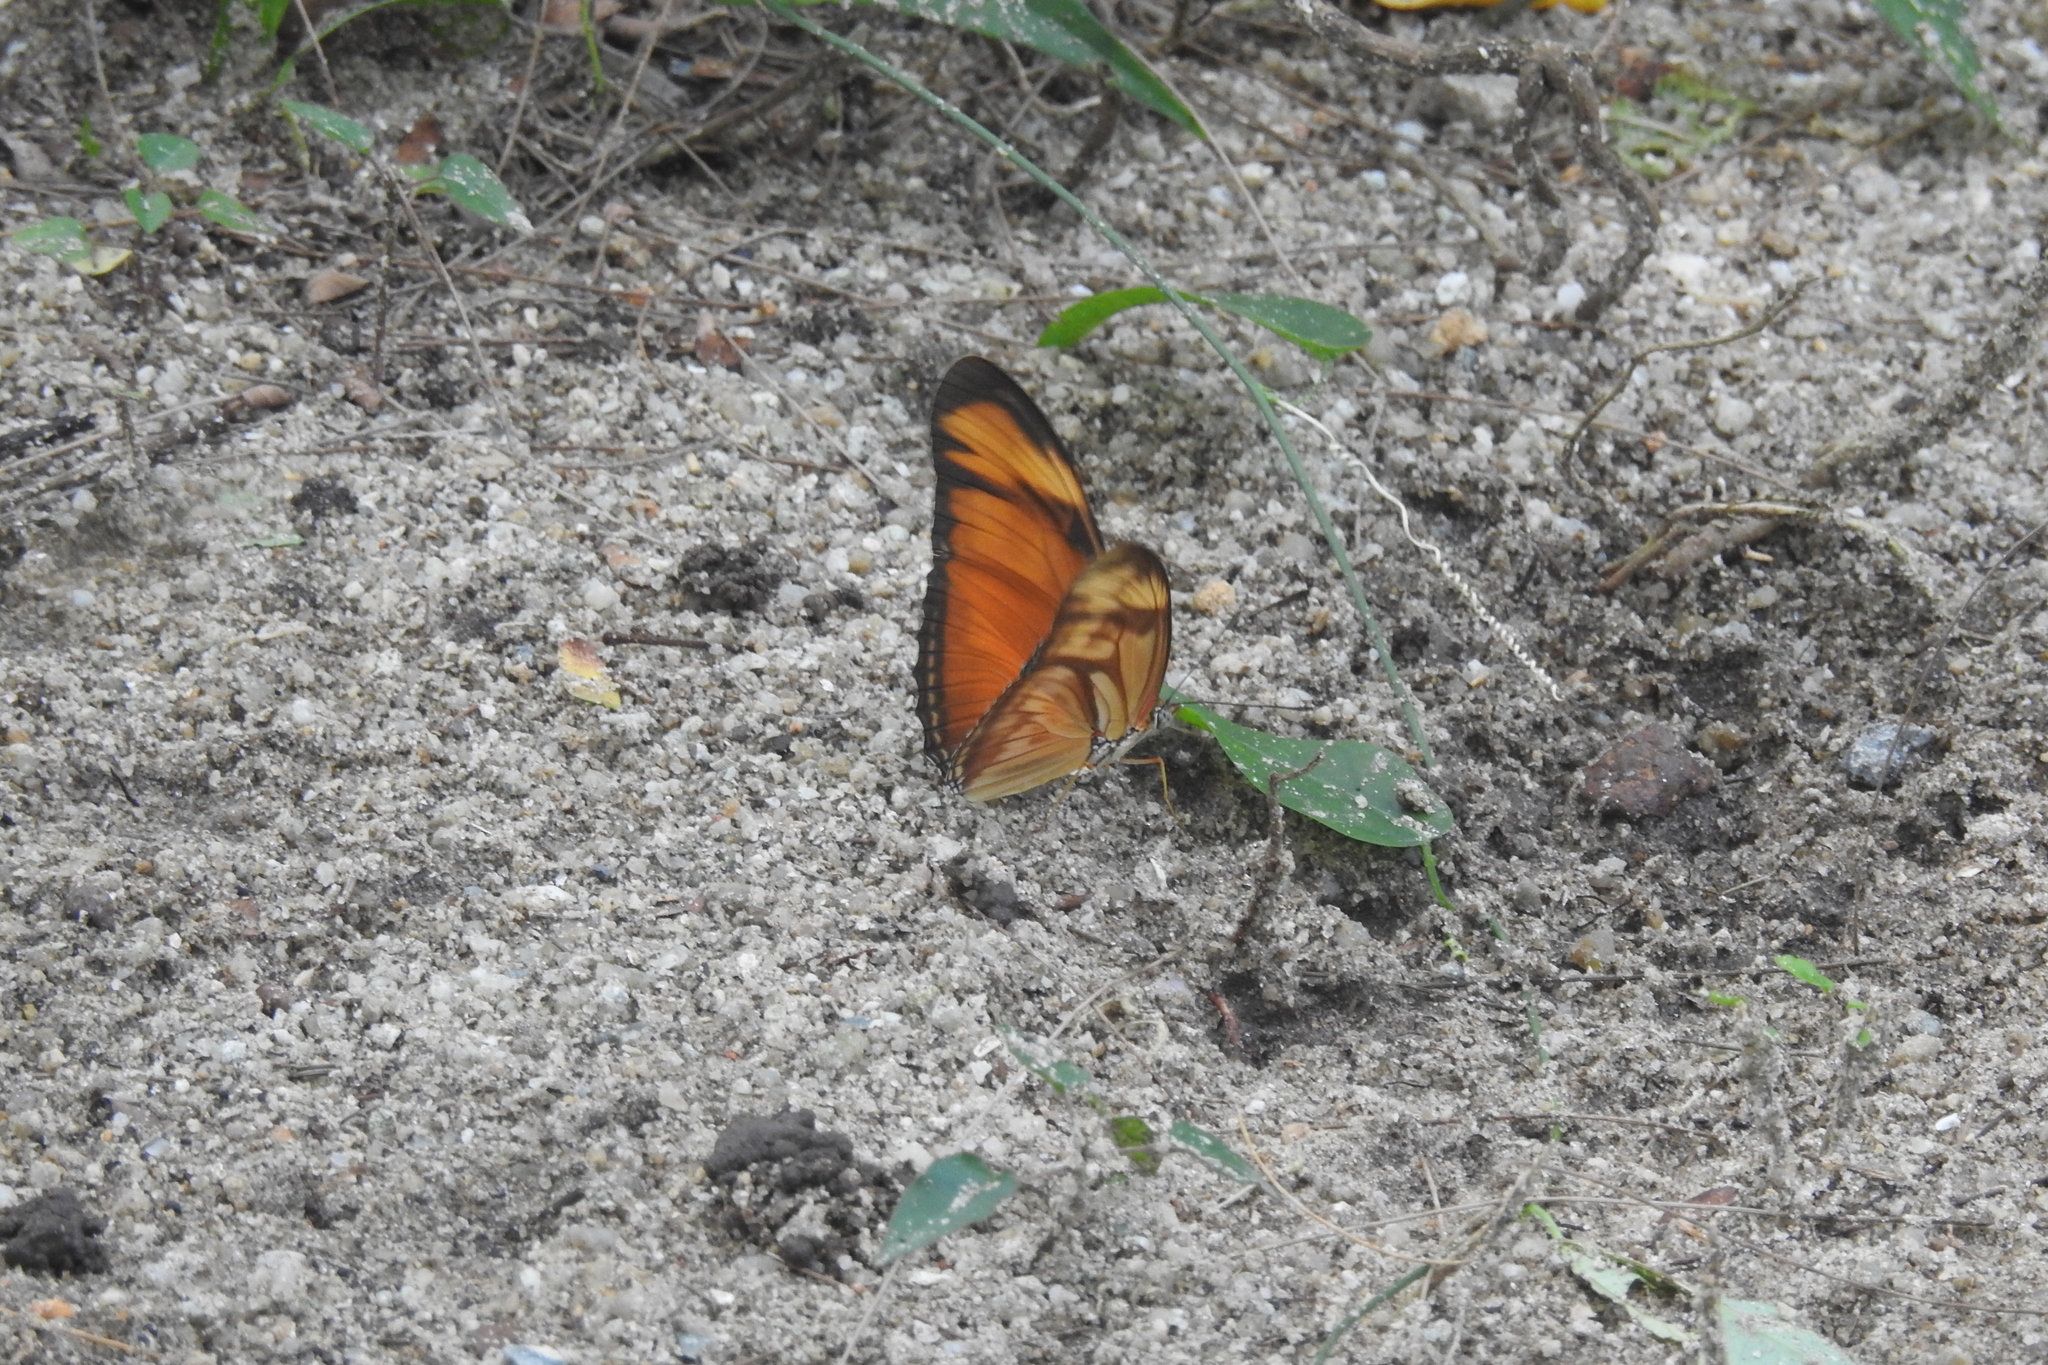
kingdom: Animalia
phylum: Arthropoda
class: Insecta
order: Lepidoptera
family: Nymphalidae
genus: Dryas
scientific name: Dryas iulia
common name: Flambeau
